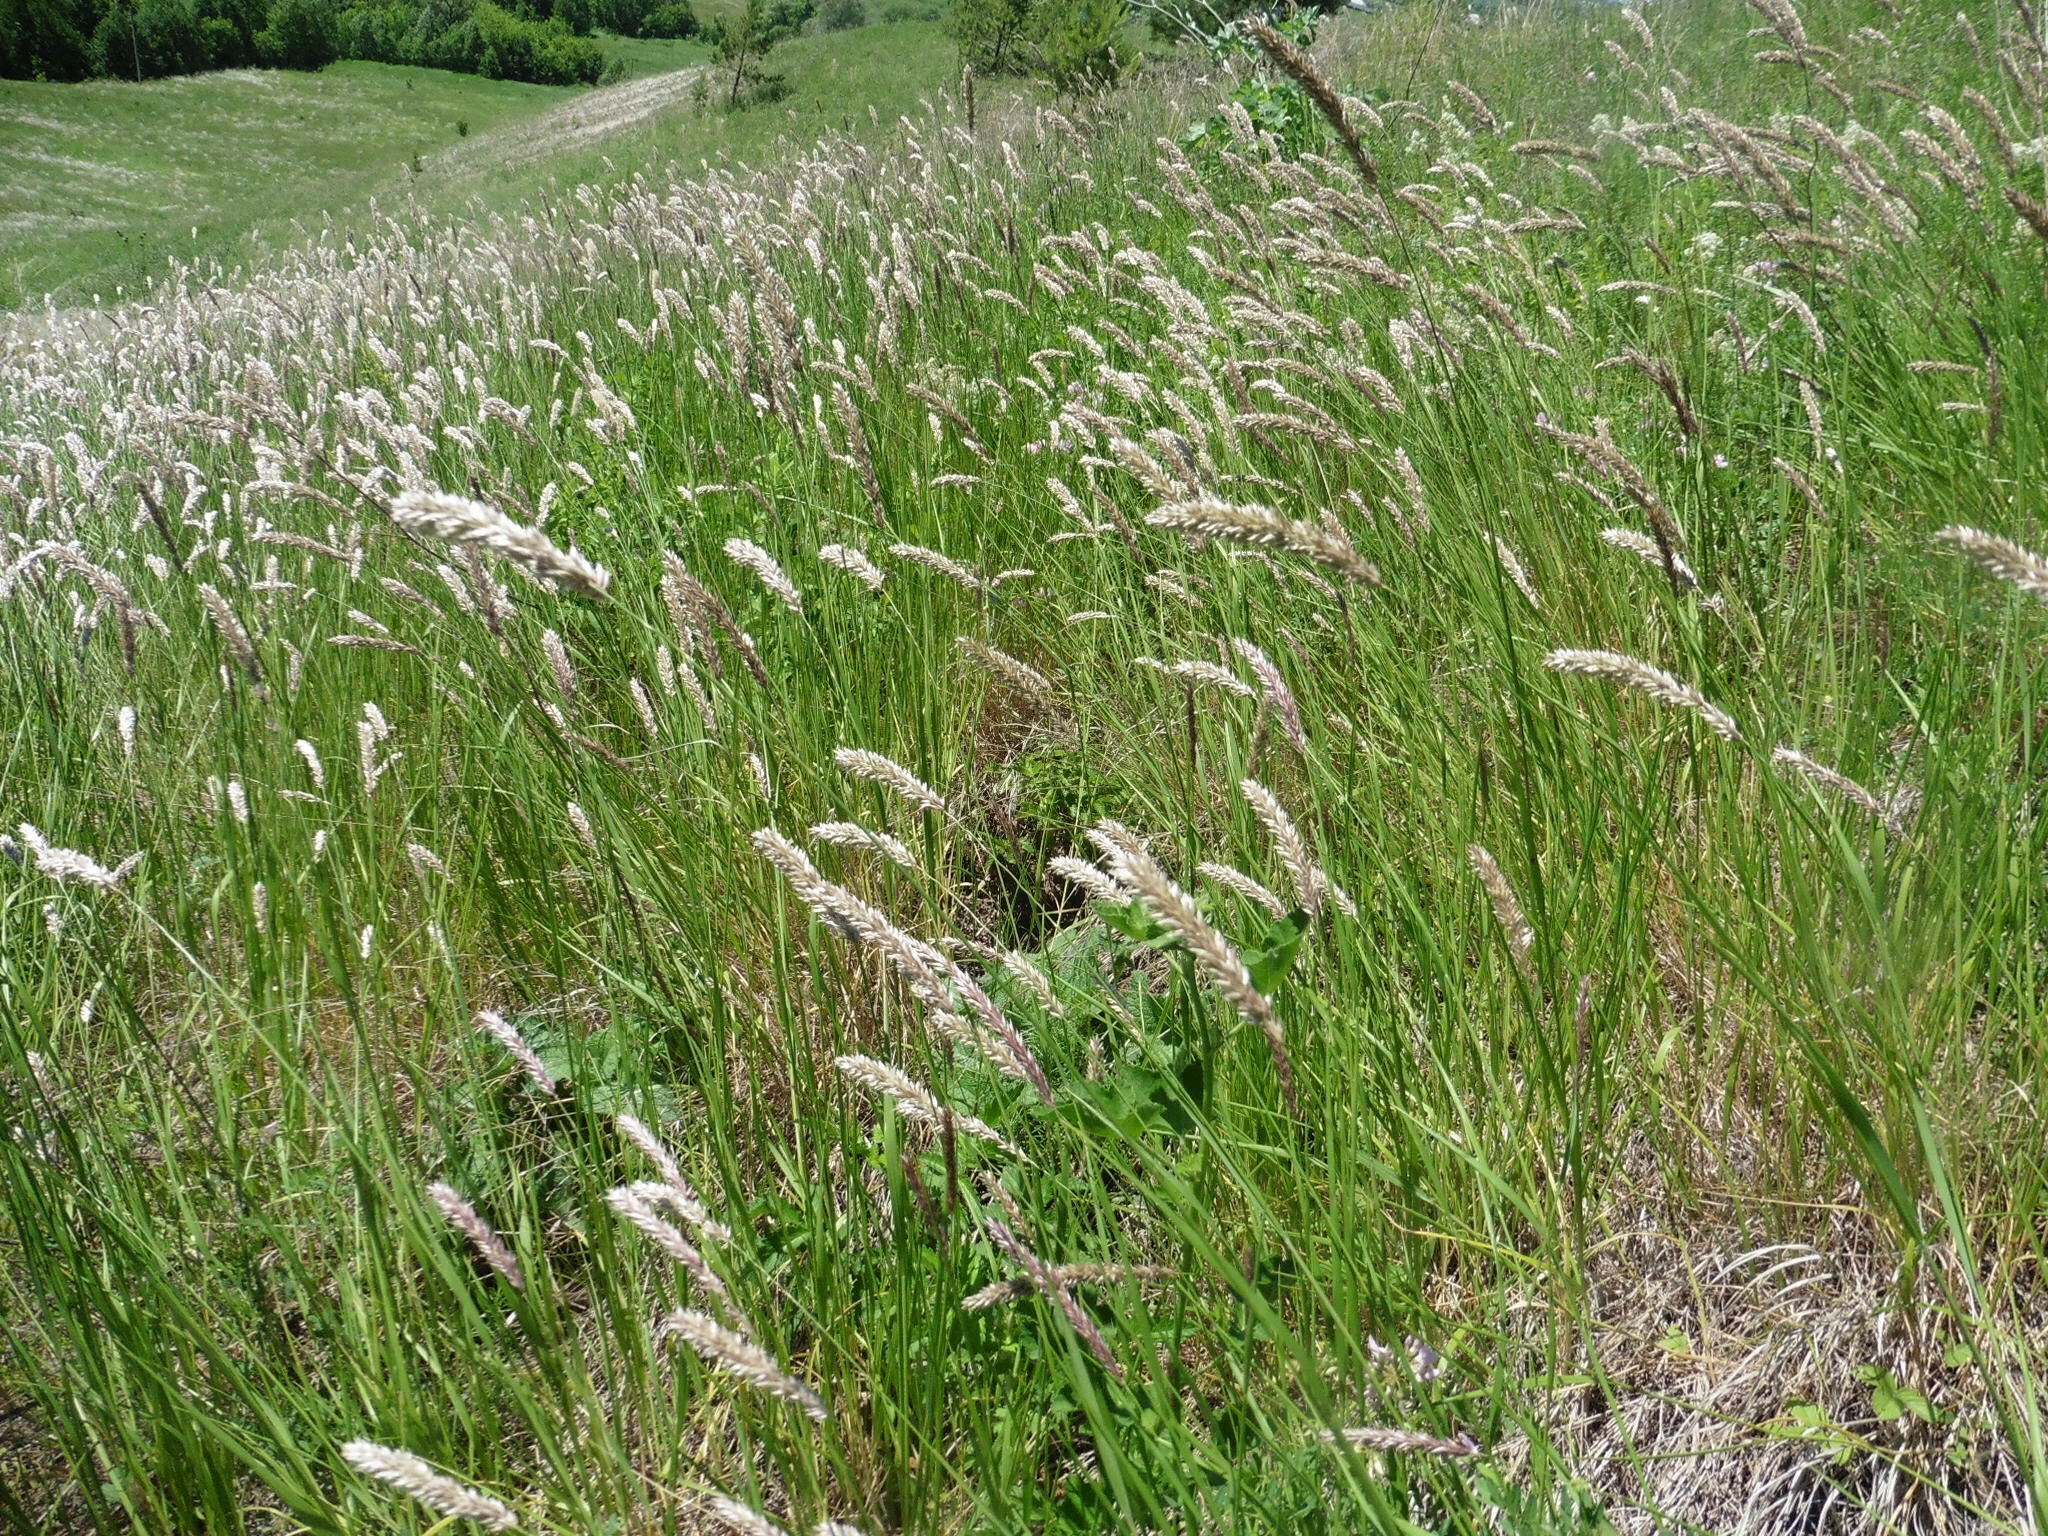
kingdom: Plantae
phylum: Tracheophyta
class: Liliopsida
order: Poales
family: Poaceae
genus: Melica
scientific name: Melica transsilvanica
